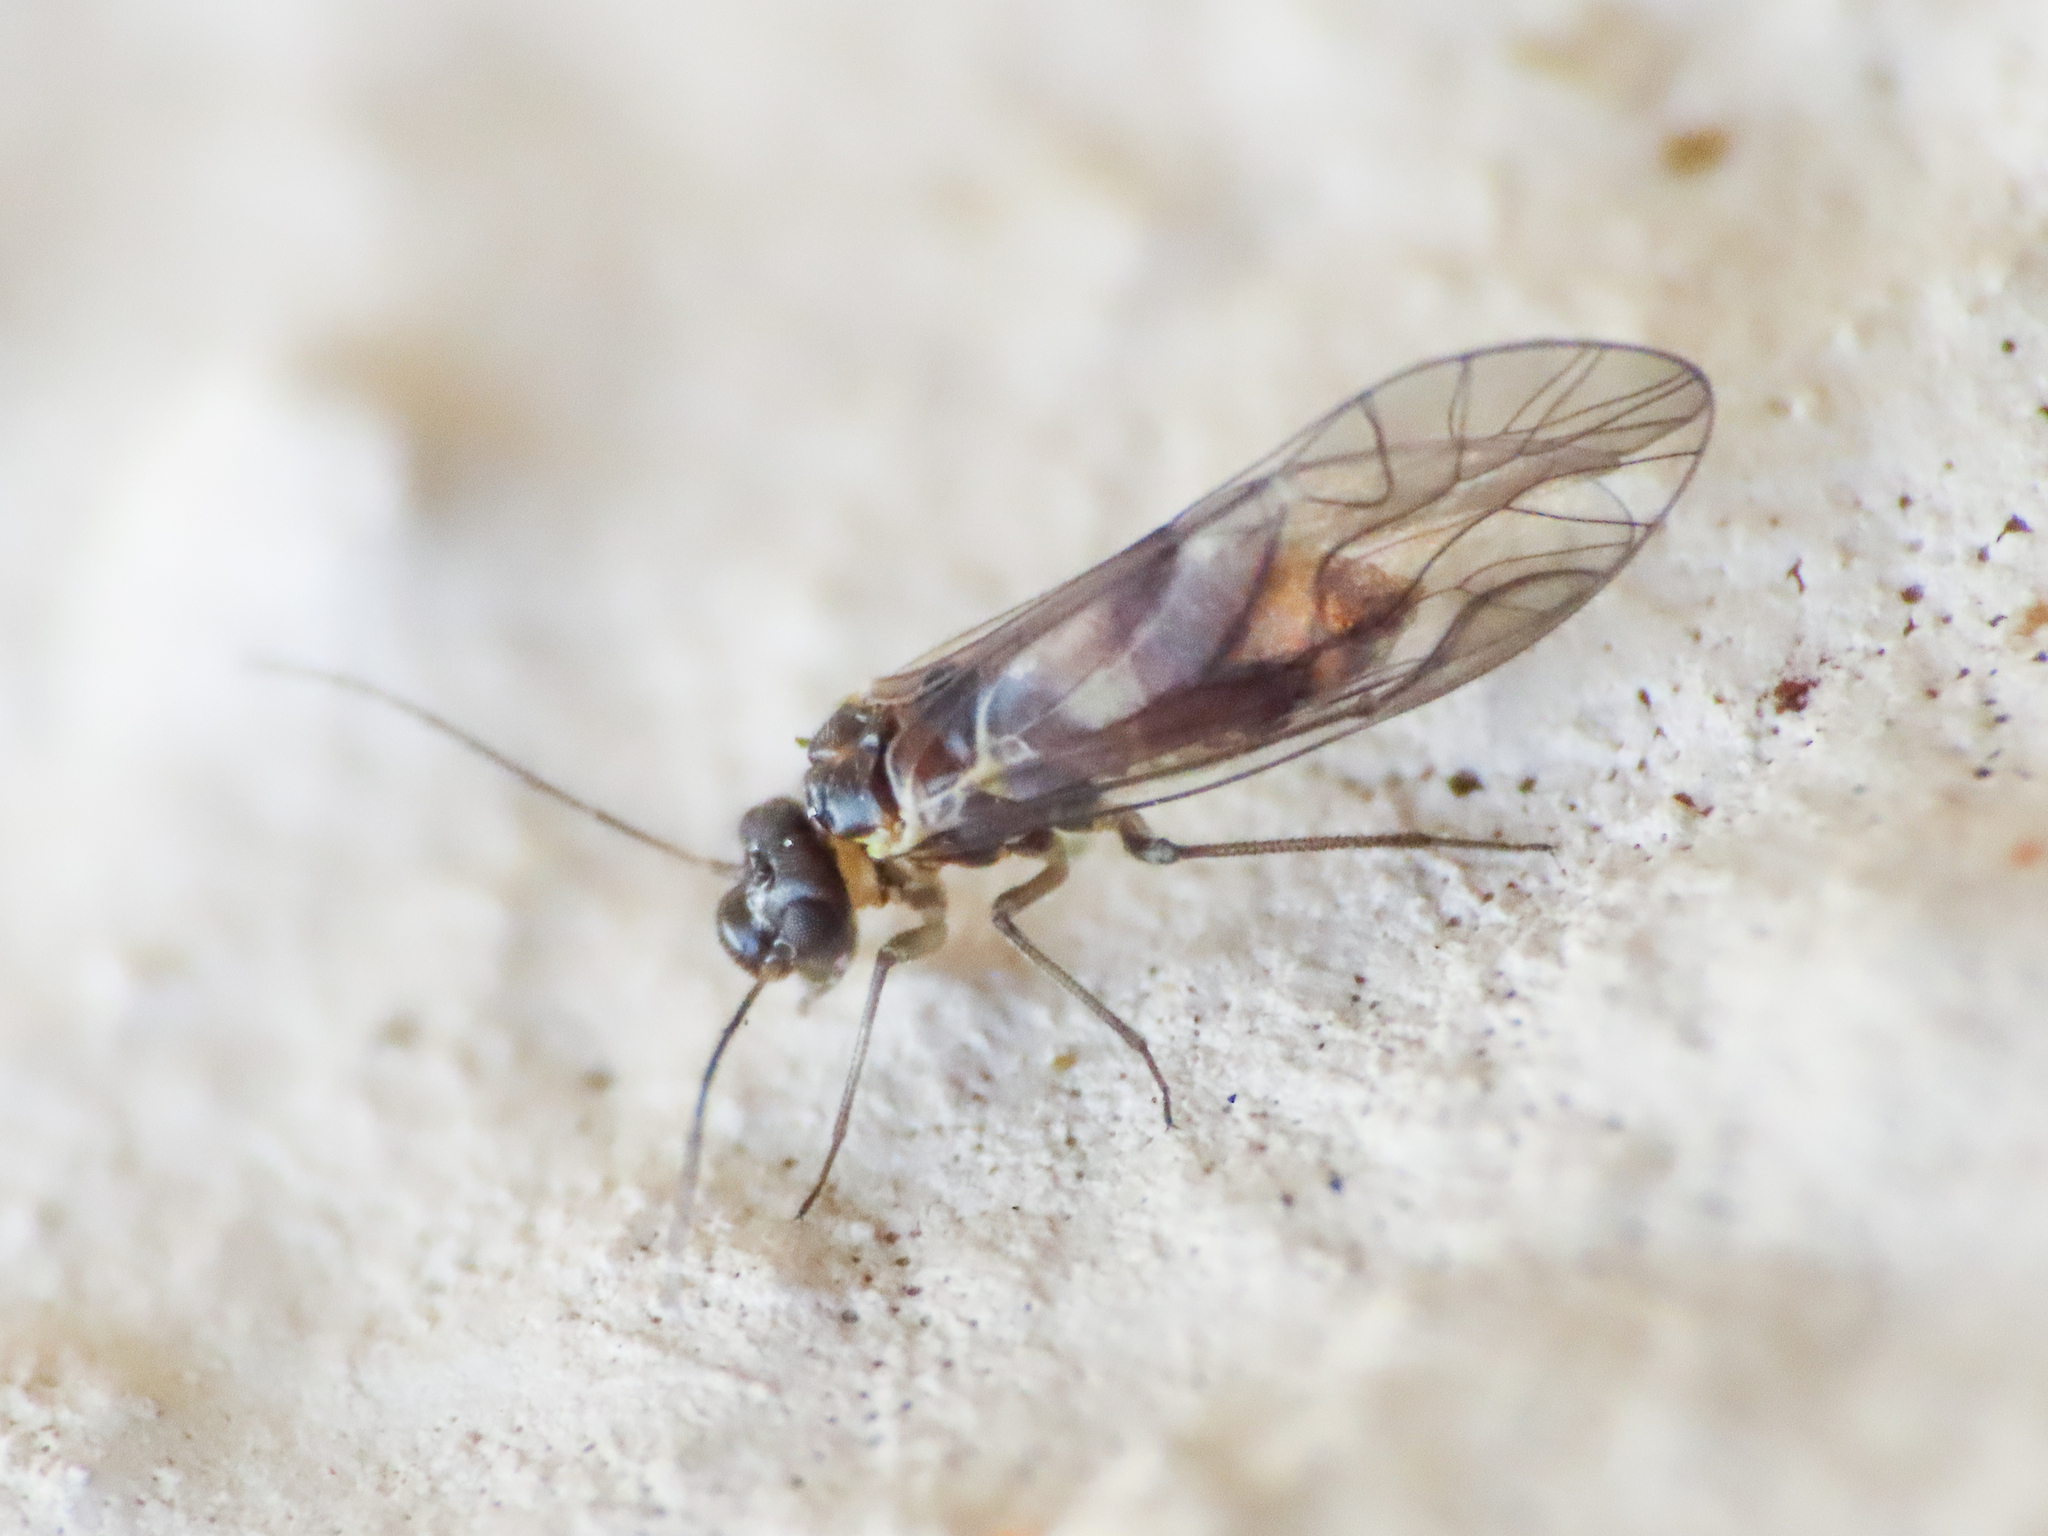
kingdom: Animalia
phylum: Arthropoda
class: Insecta
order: Psocodea
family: Elipsocidae
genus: Elipsocus
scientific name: Elipsocus hyalinus
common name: Bark lice
